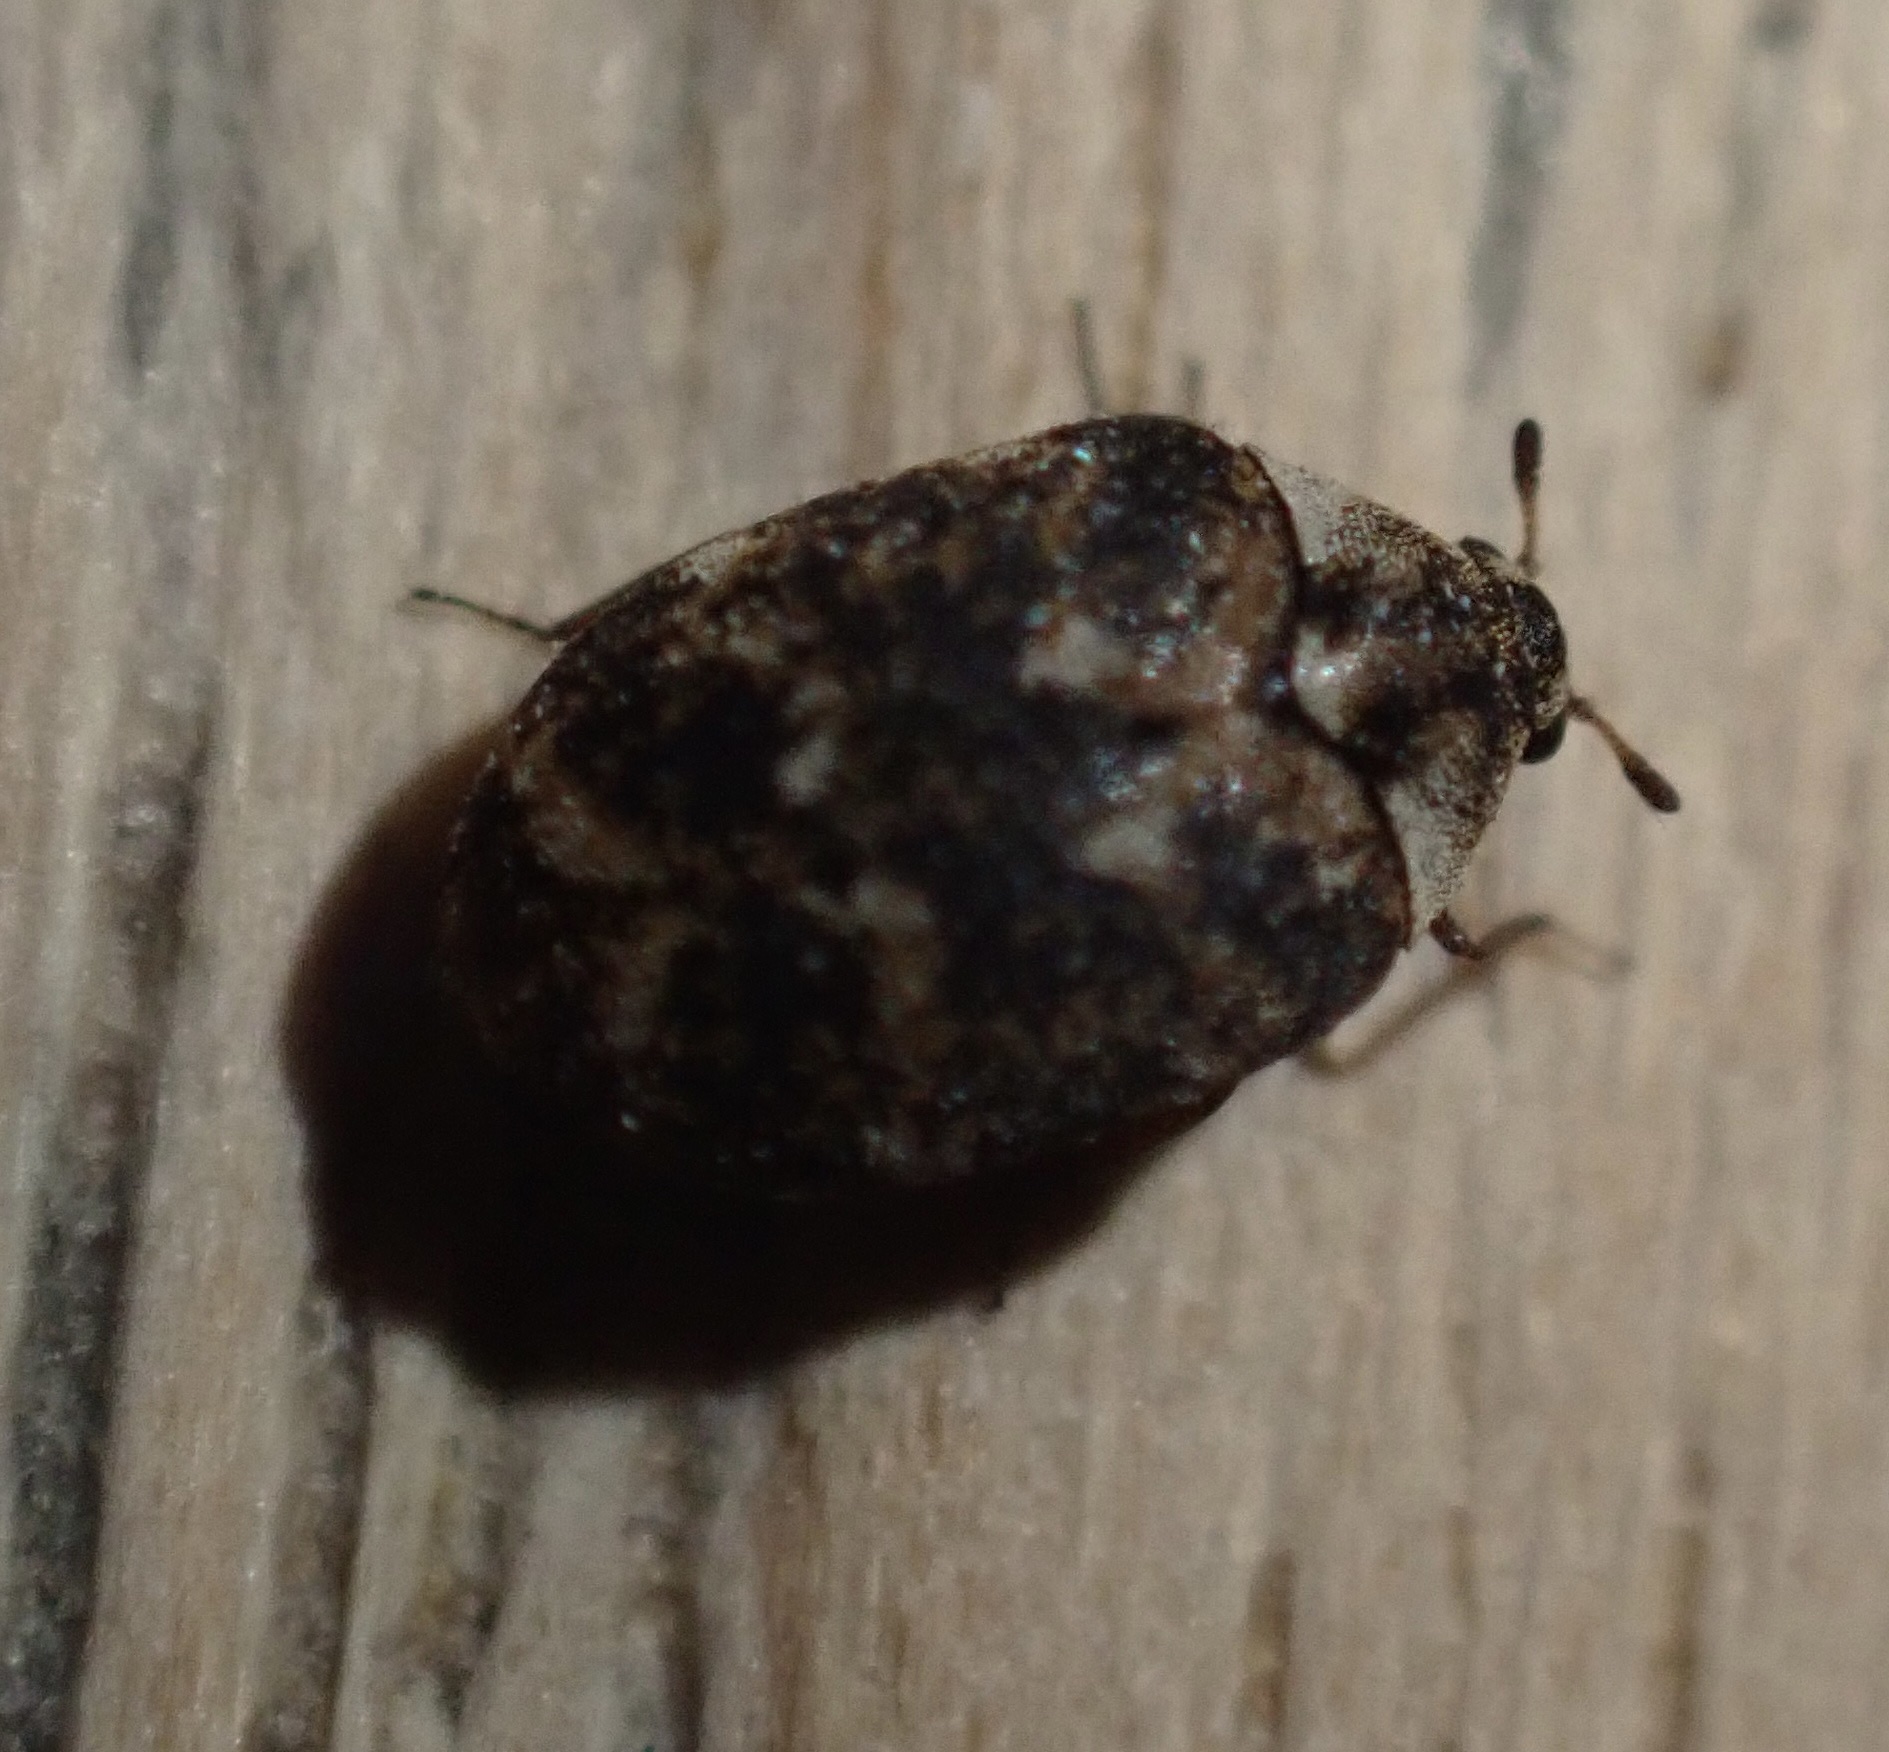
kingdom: Animalia
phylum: Arthropoda
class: Insecta
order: Coleoptera
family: Dermestidae
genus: Anthrenus
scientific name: Anthrenus museorum
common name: Museum beetle
